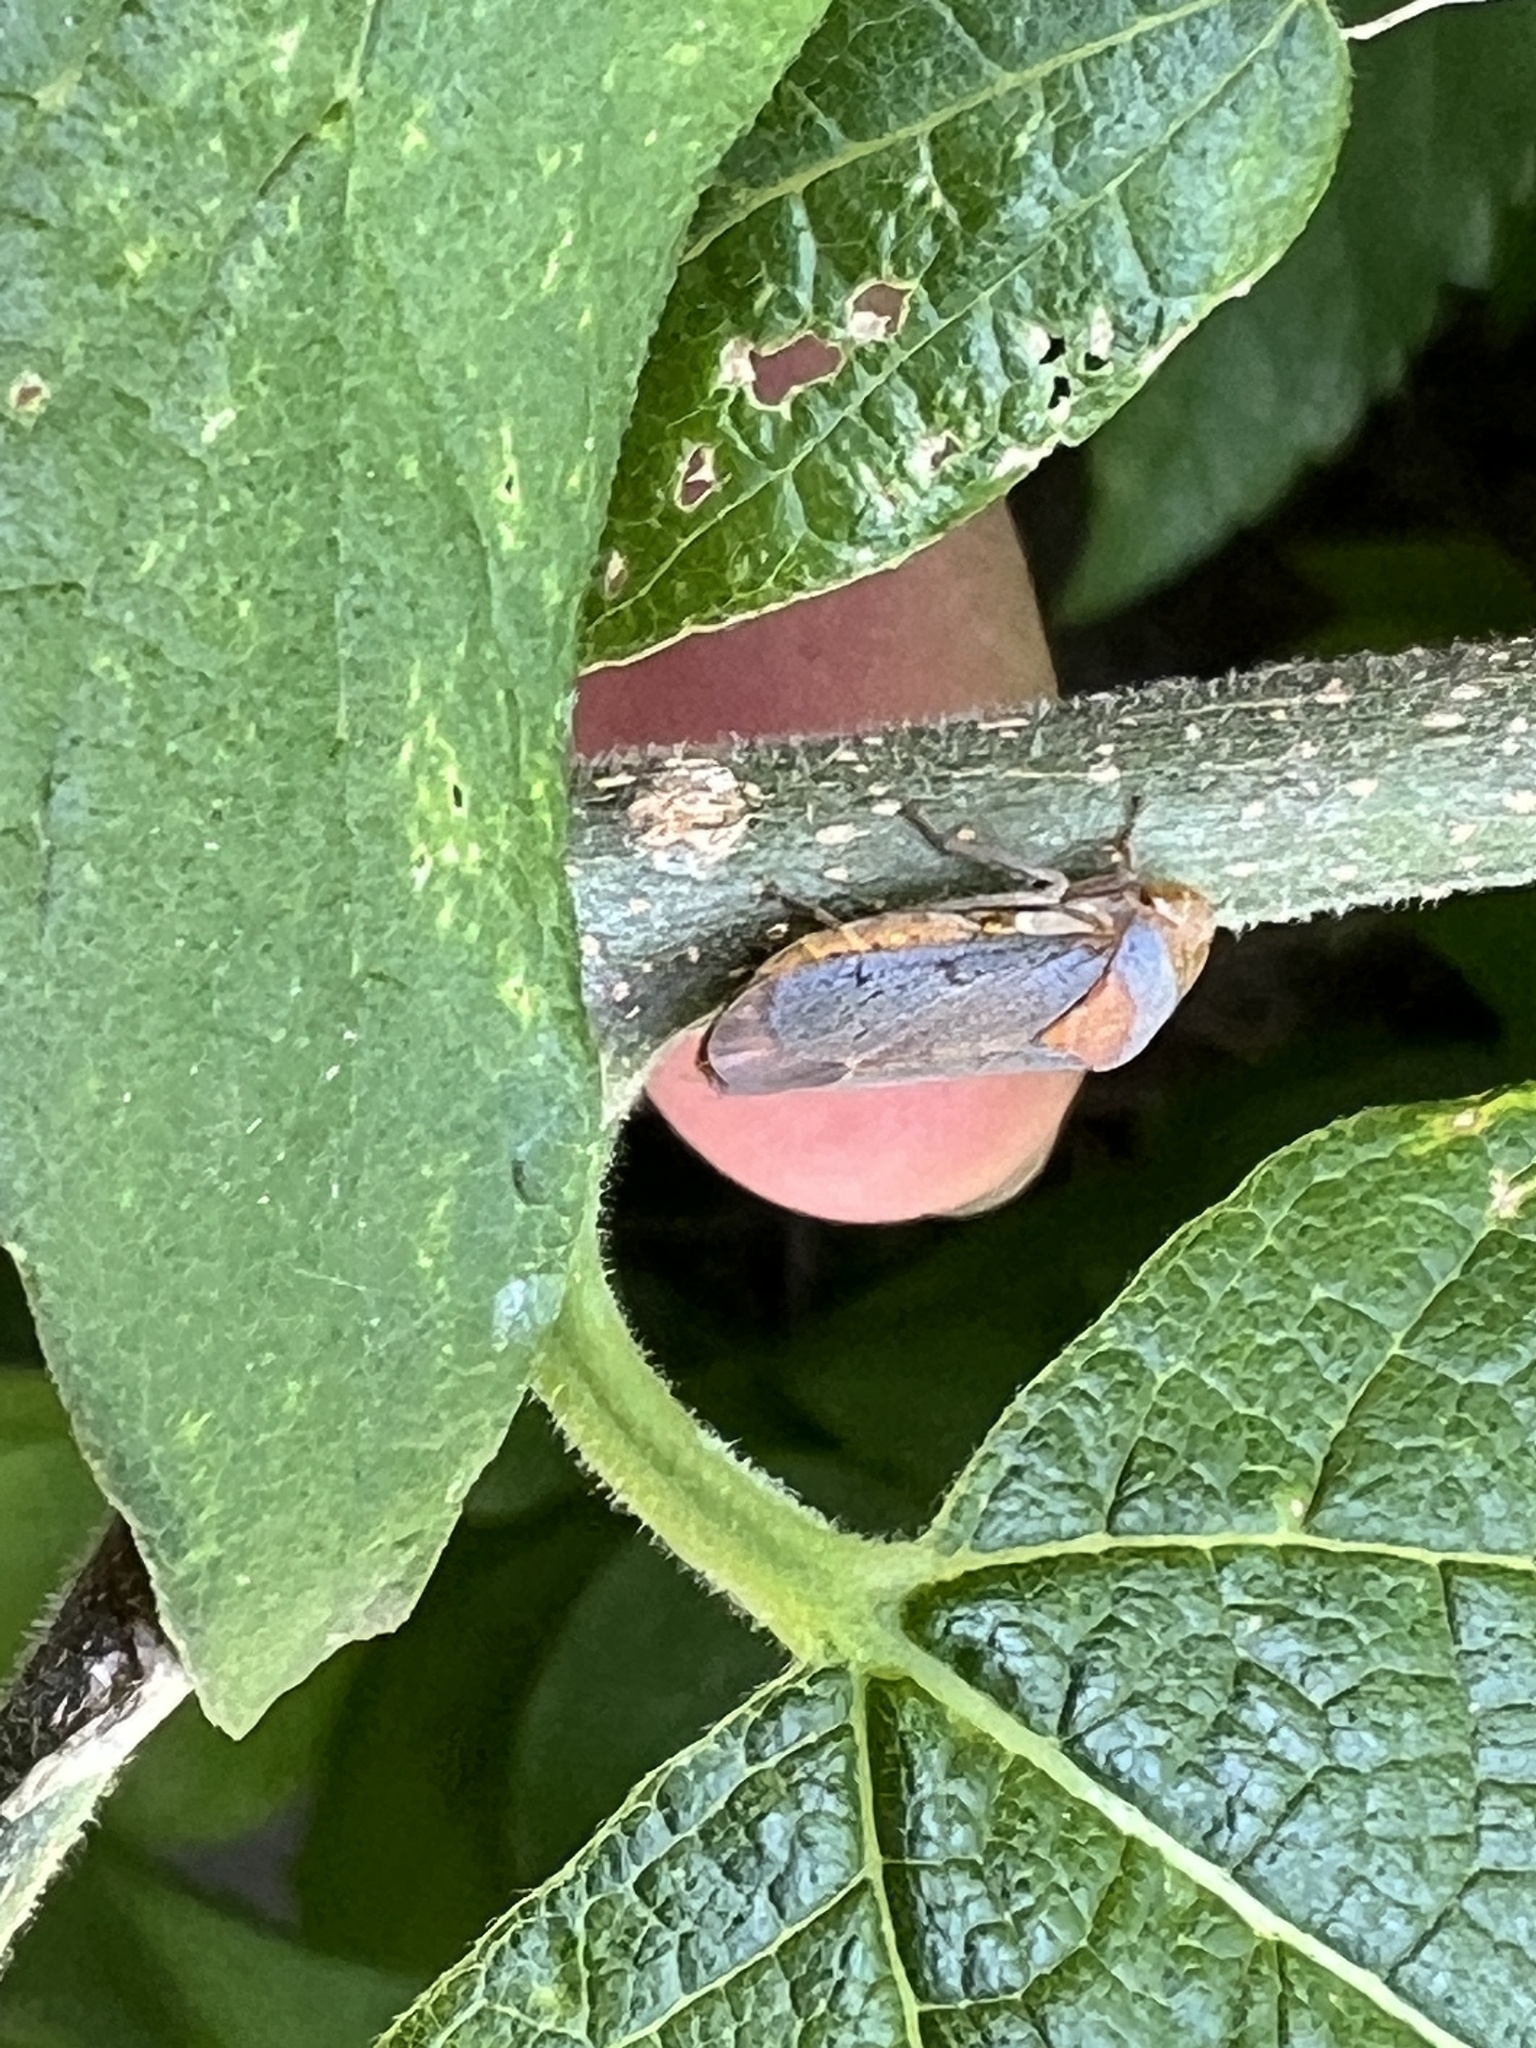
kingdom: Animalia
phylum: Arthropoda
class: Insecta
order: Hemiptera
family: Cicadellidae
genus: Oncometopia
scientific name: Oncometopia hamiltoni
